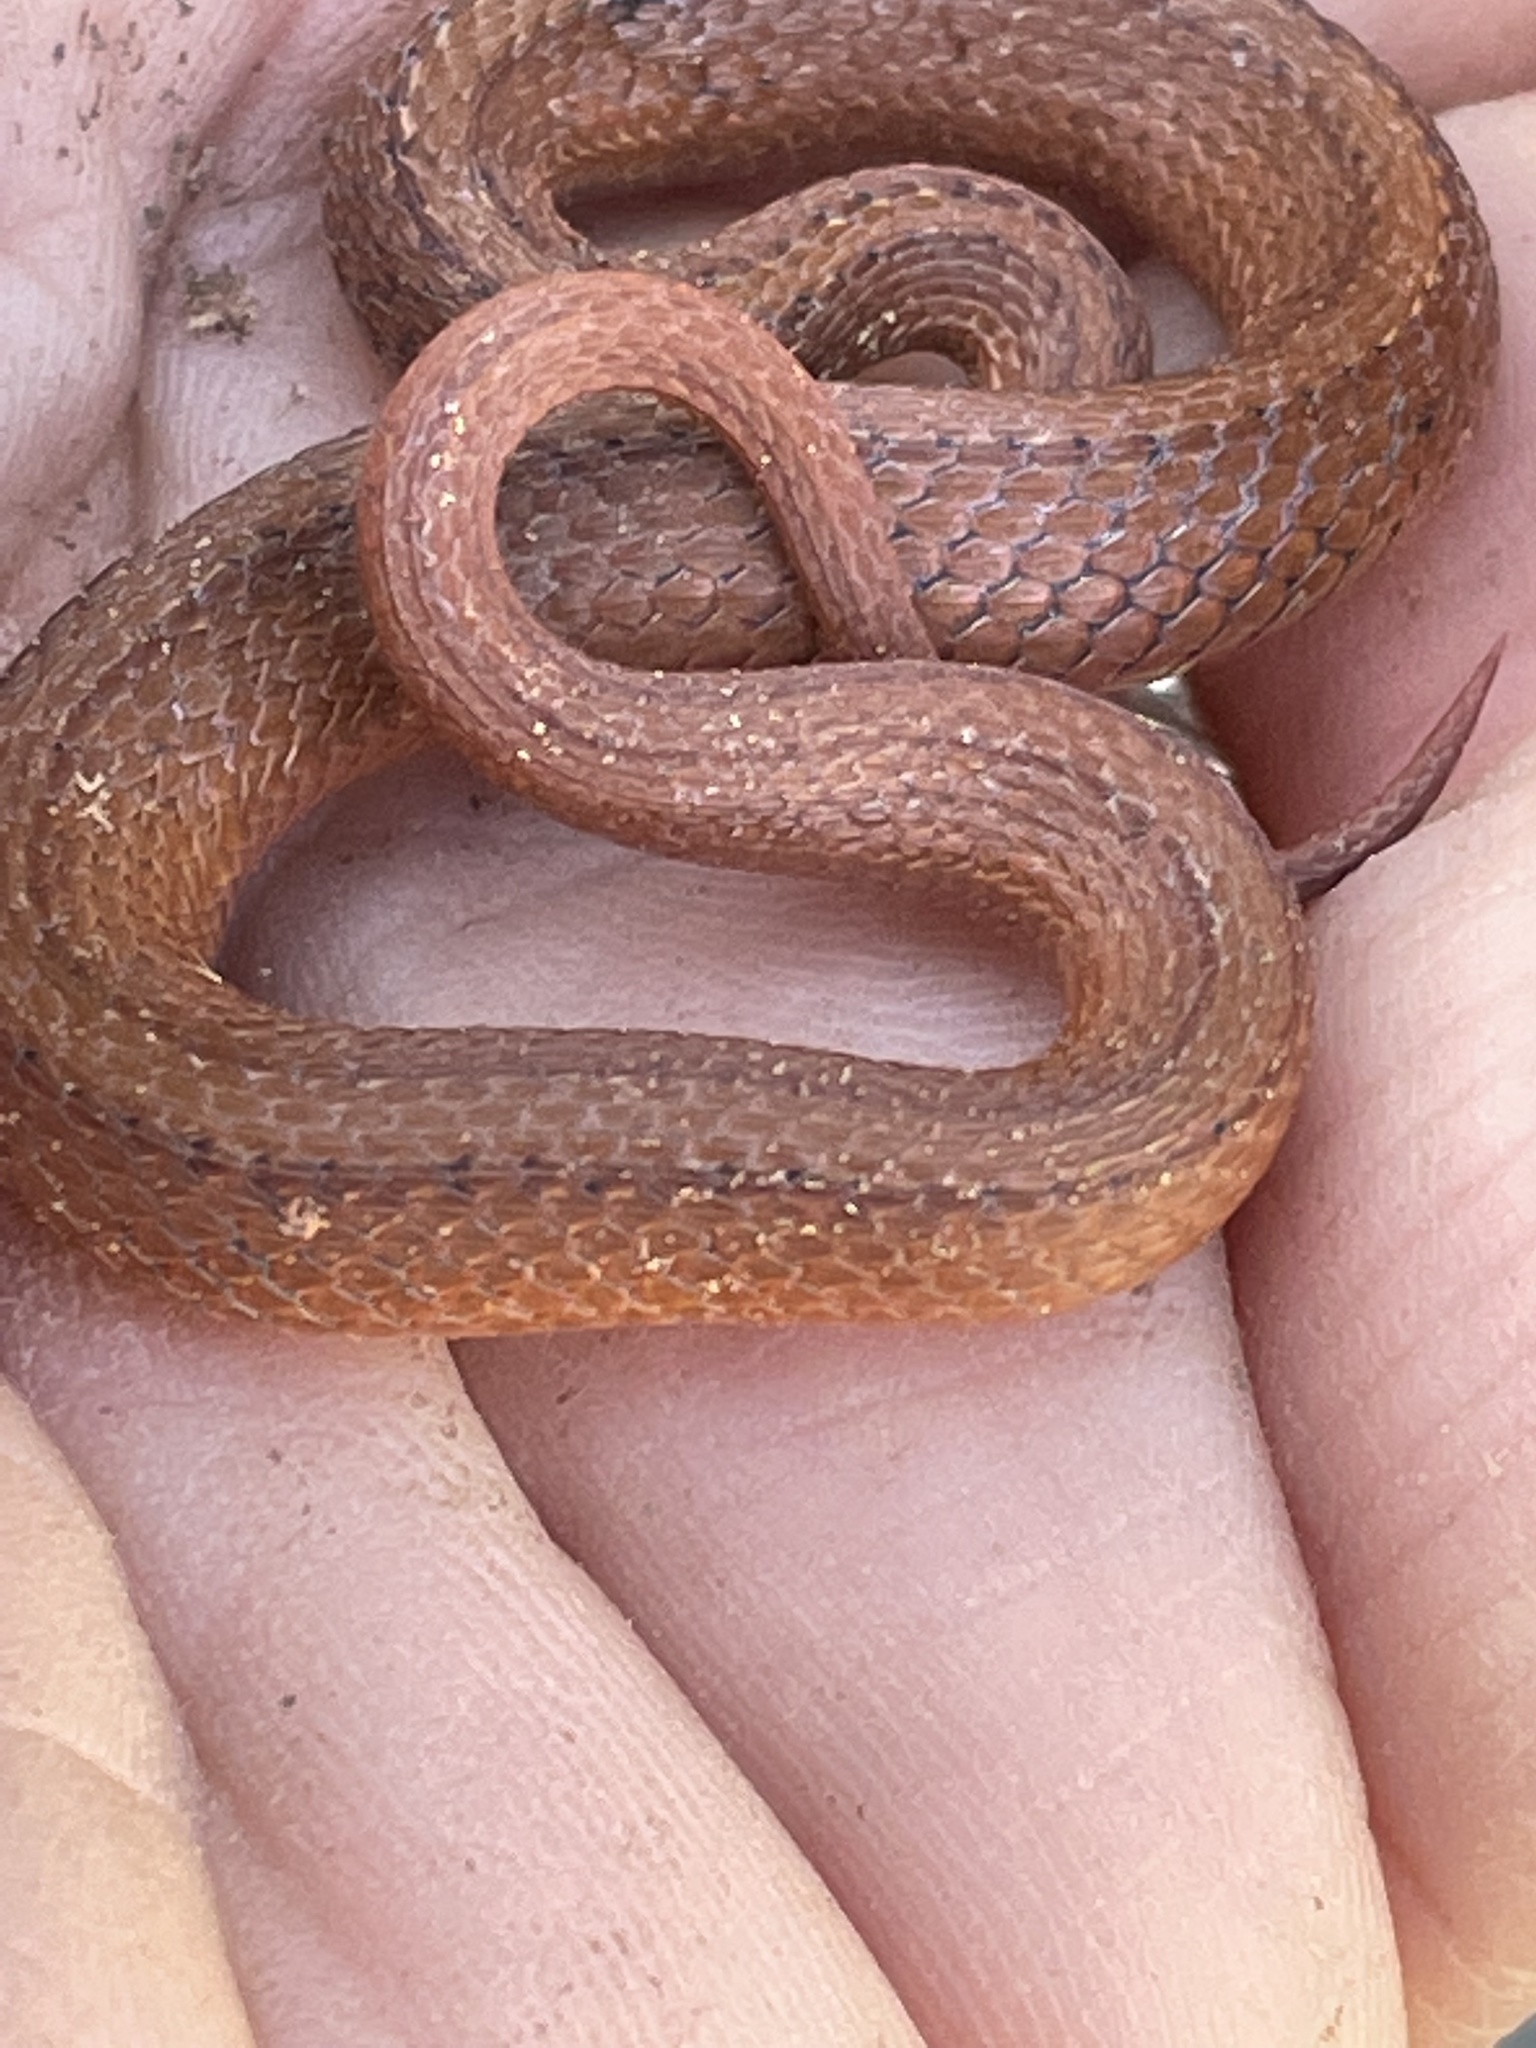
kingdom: Animalia
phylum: Chordata
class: Squamata
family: Colubridae
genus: Storeria
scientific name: Storeria occipitomaculata
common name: Redbelly snake
